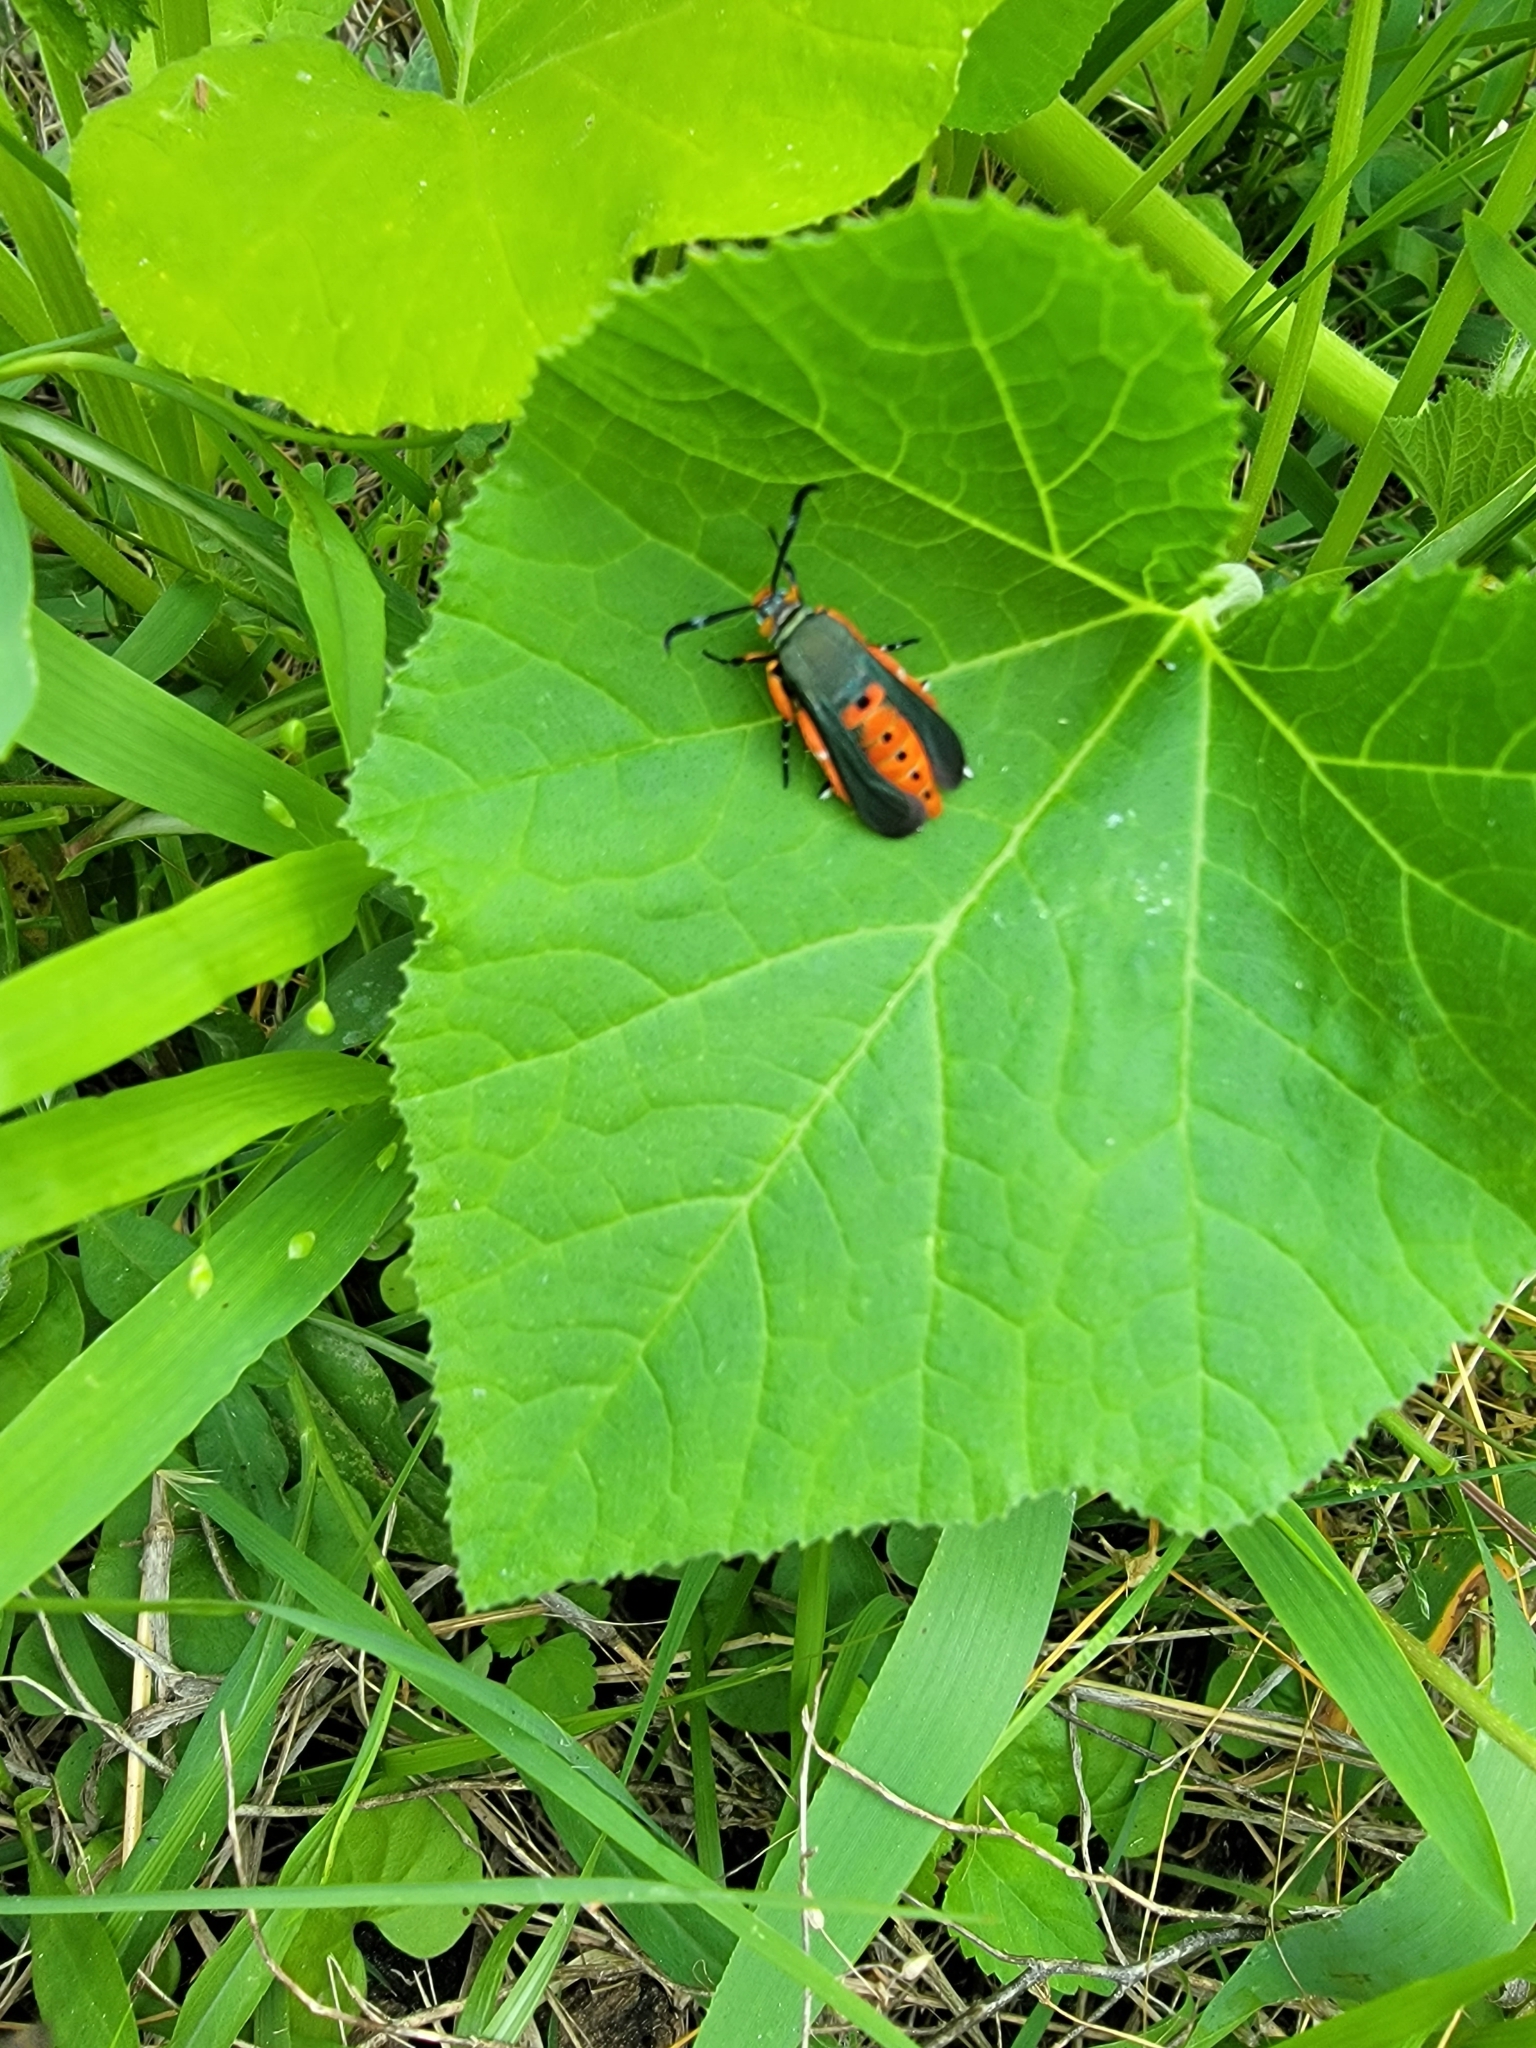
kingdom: Animalia
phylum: Arthropoda
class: Insecta
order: Lepidoptera
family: Sesiidae
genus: Eichlinia
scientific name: Eichlinia calabaza
